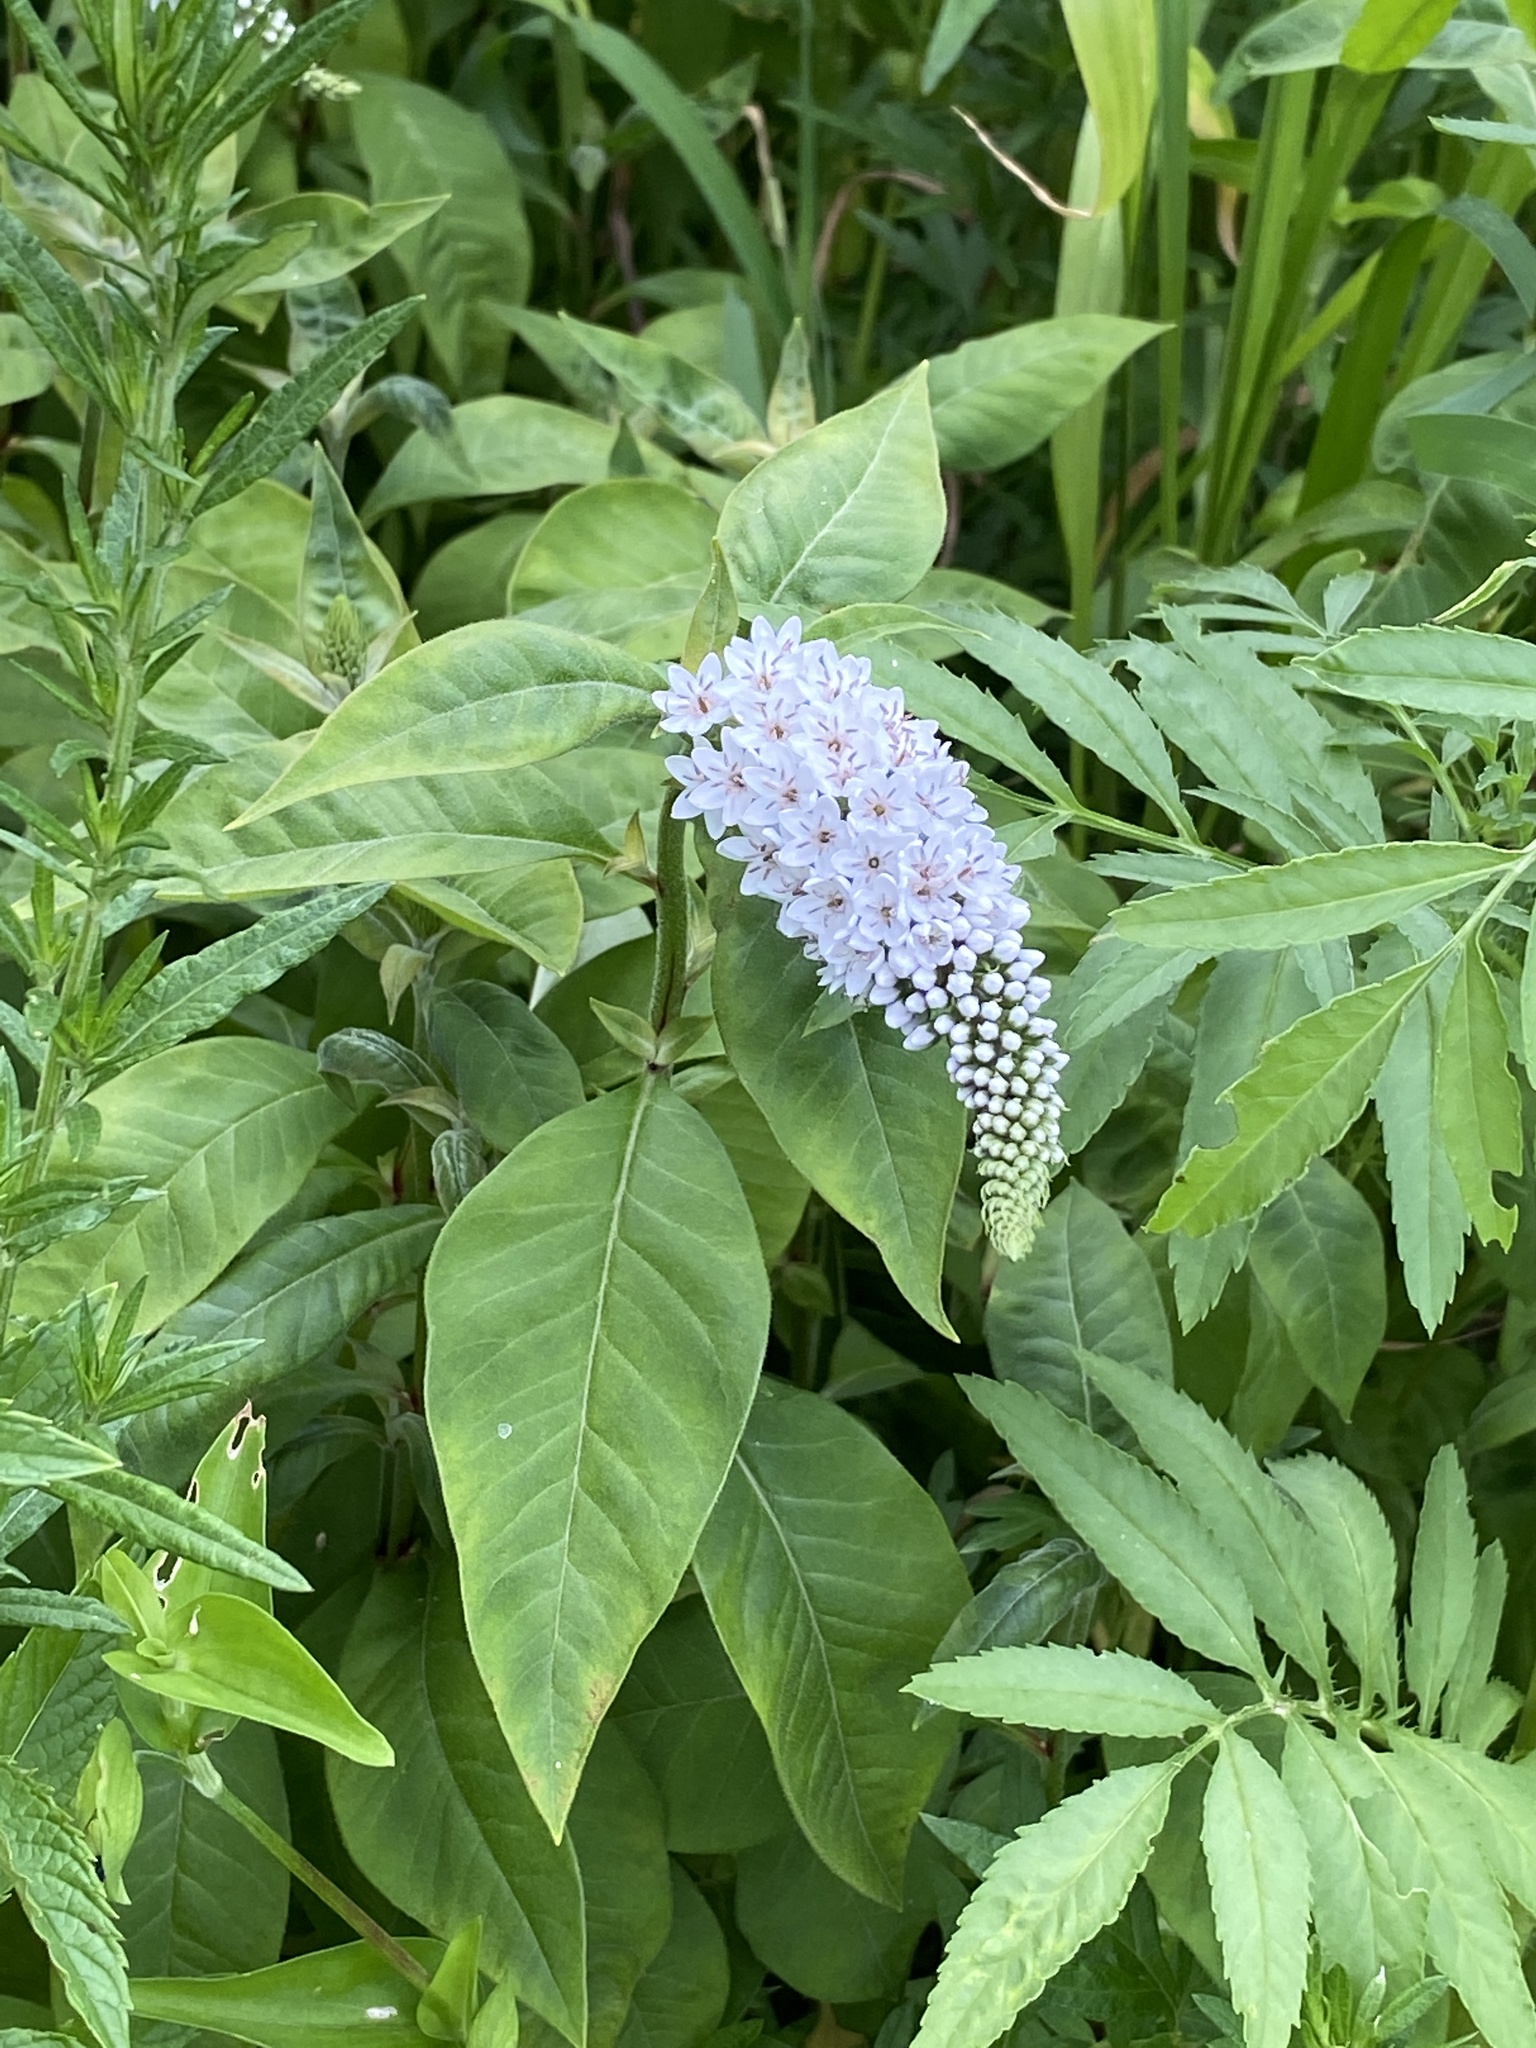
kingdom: Plantae
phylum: Tracheophyta
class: Magnoliopsida
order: Ericales
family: Primulaceae
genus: Lysimachia
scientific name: Lysimachia clethroides
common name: Gooseneck loosestrife
